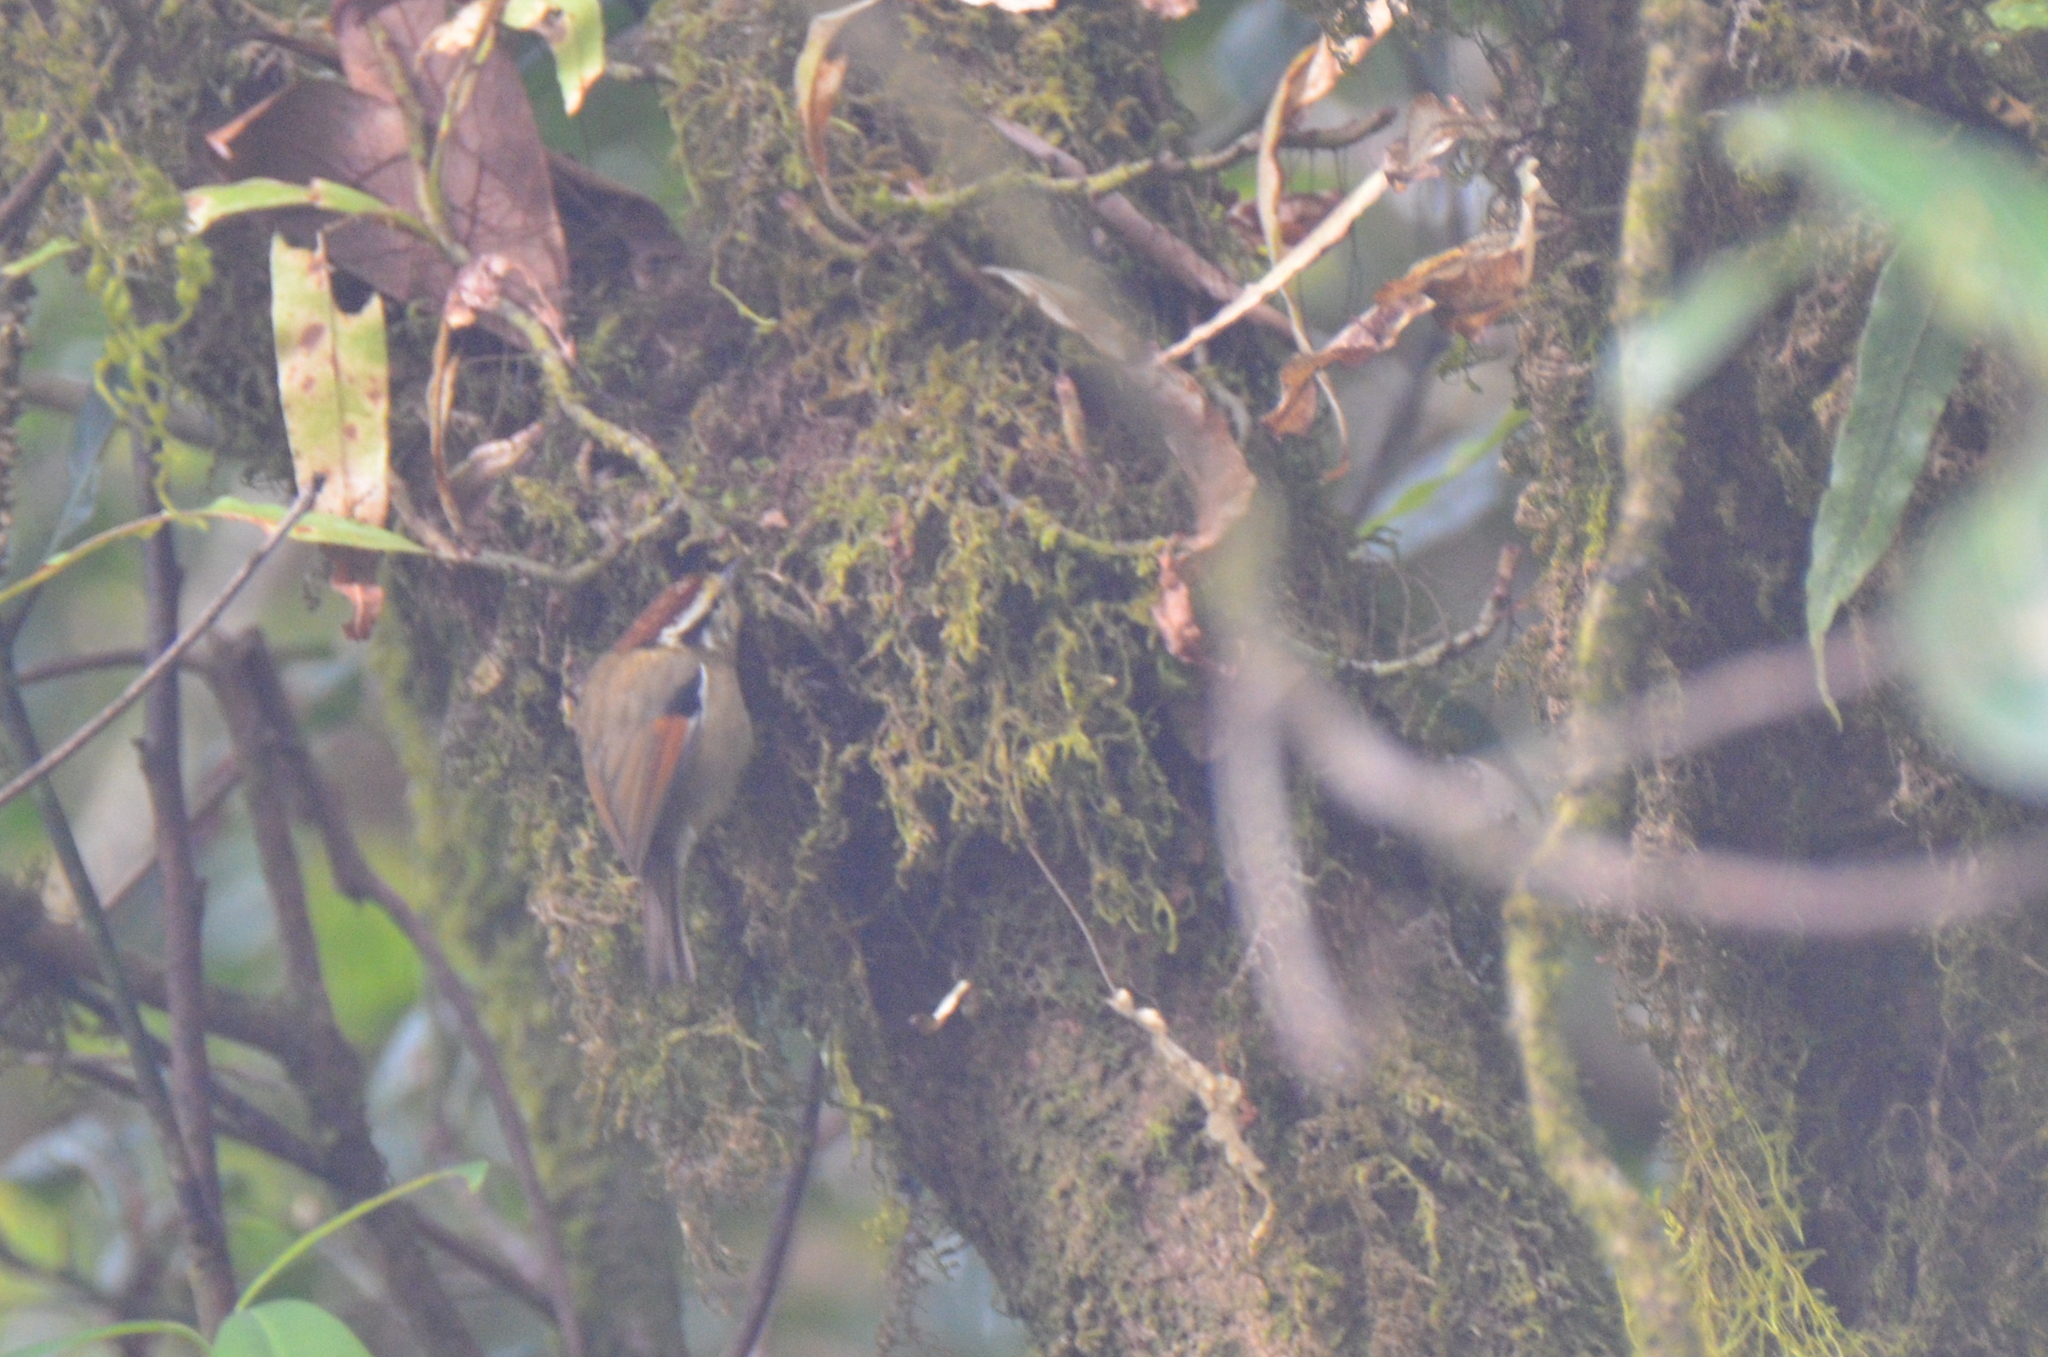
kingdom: Animalia
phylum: Chordata
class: Aves
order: Passeriformes
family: Pellorneidae
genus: Alcippe
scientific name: Alcippe castaneceps
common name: Rufous-winged fulvetta
